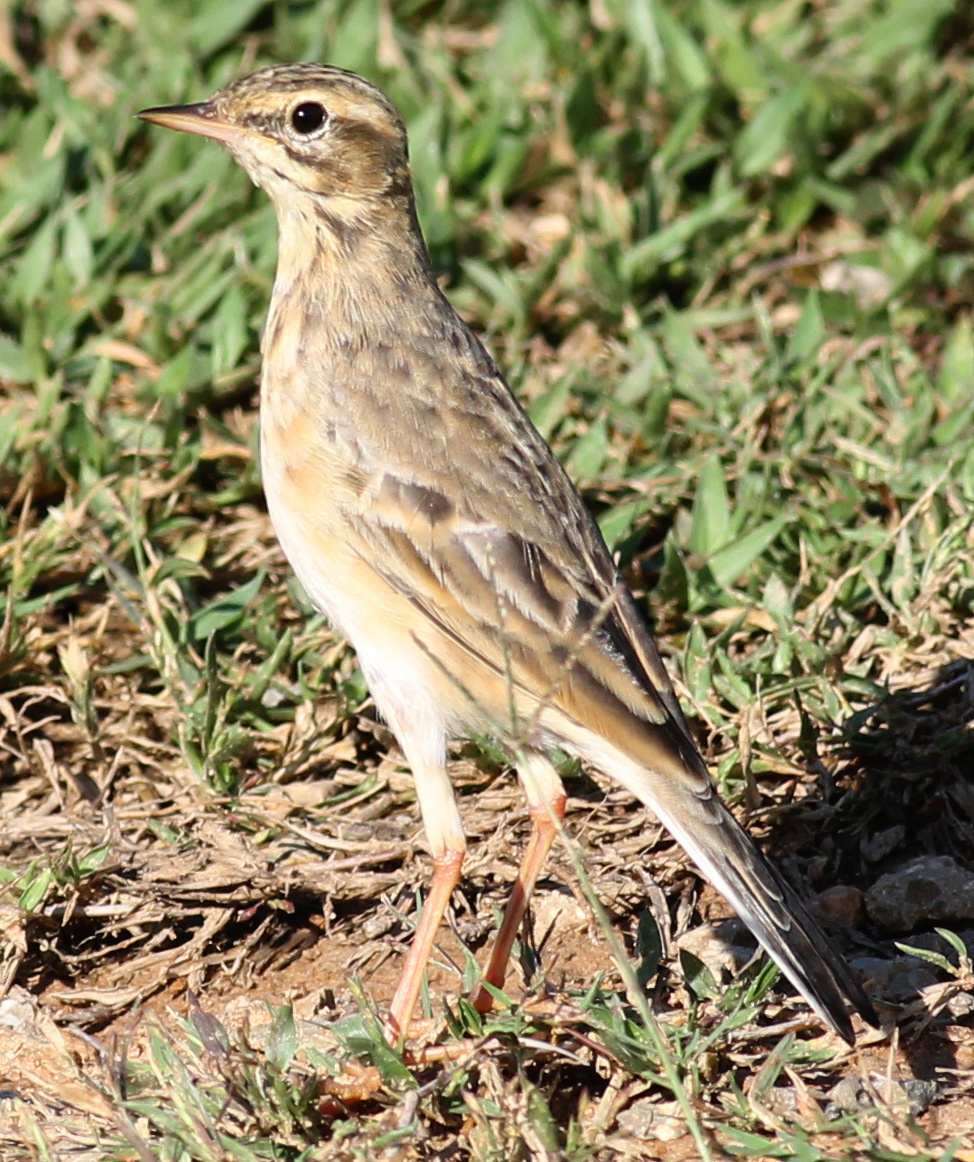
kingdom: Animalia
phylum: Chordata
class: Aves
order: Passeriformes
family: Motacillidae
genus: Anthus
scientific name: Anthus rufulus
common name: Paddyfield pipit
